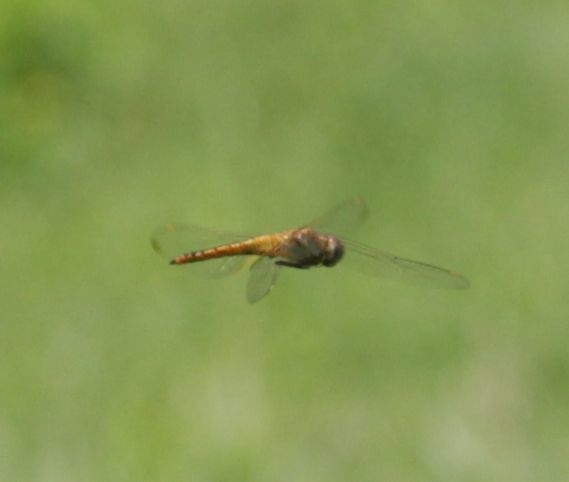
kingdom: Animalia
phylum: Arthropoda
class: Insecta
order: Odonata
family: Libellulidae
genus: Pantala
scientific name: Pantala flavescens
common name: Wandering glider
